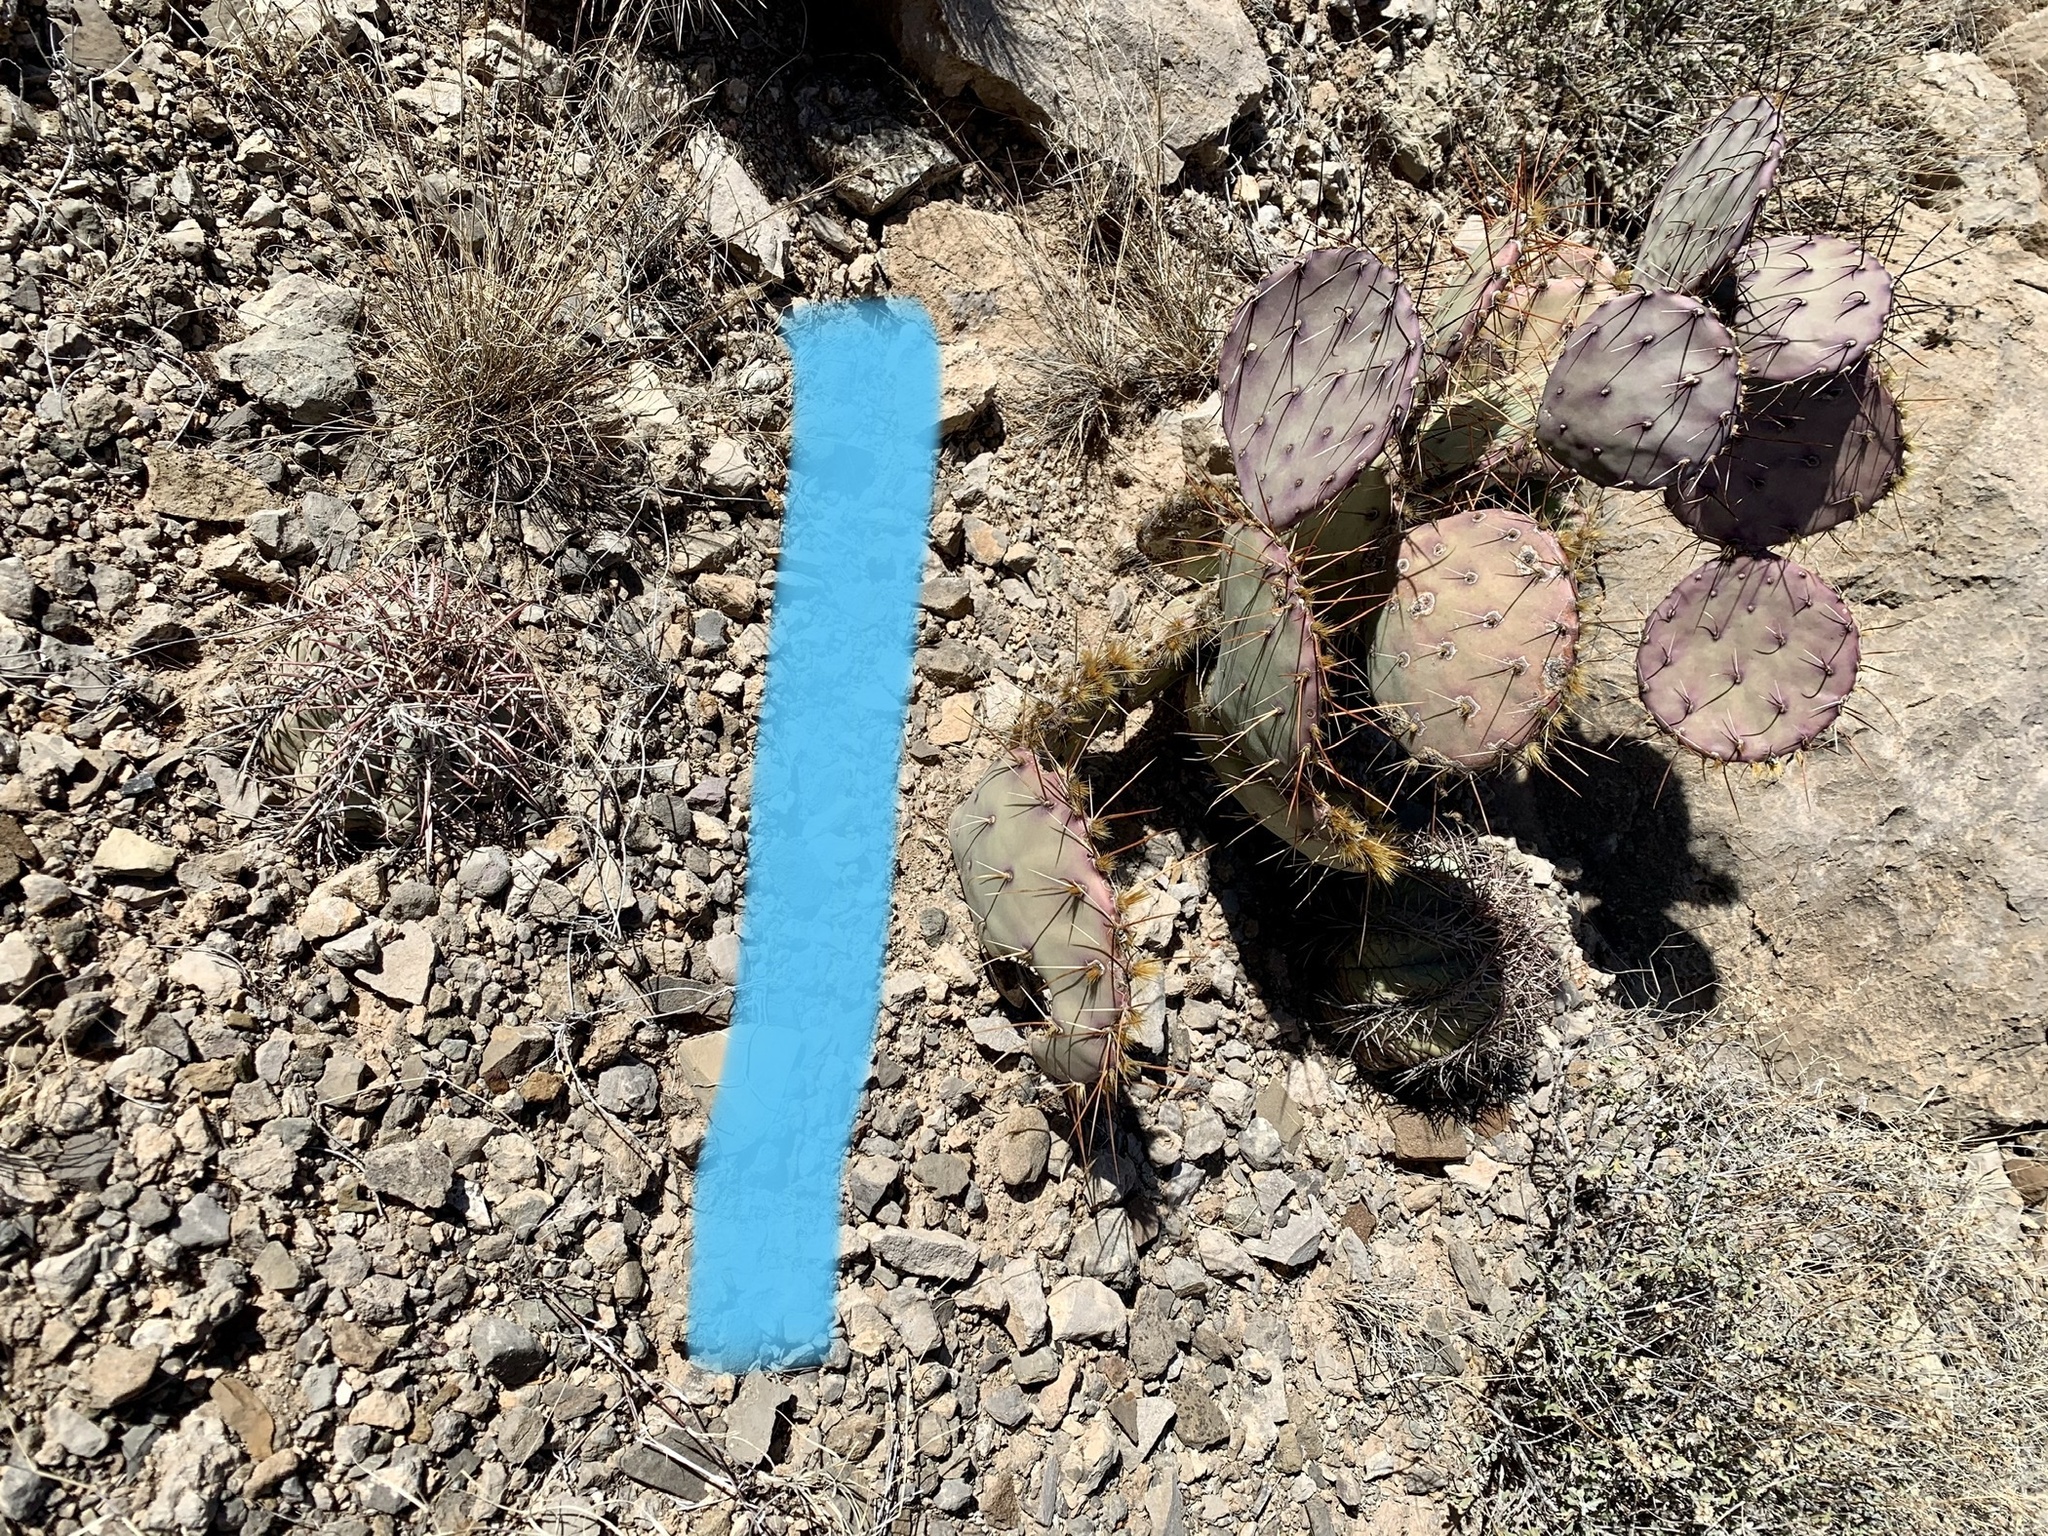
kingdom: Plantae
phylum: Tracheophyta
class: Magnoliopsida
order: Caryophyllales
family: Cactaceae
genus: Echinocactus
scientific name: Echinocactus horizonthalonius
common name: Devilshead
